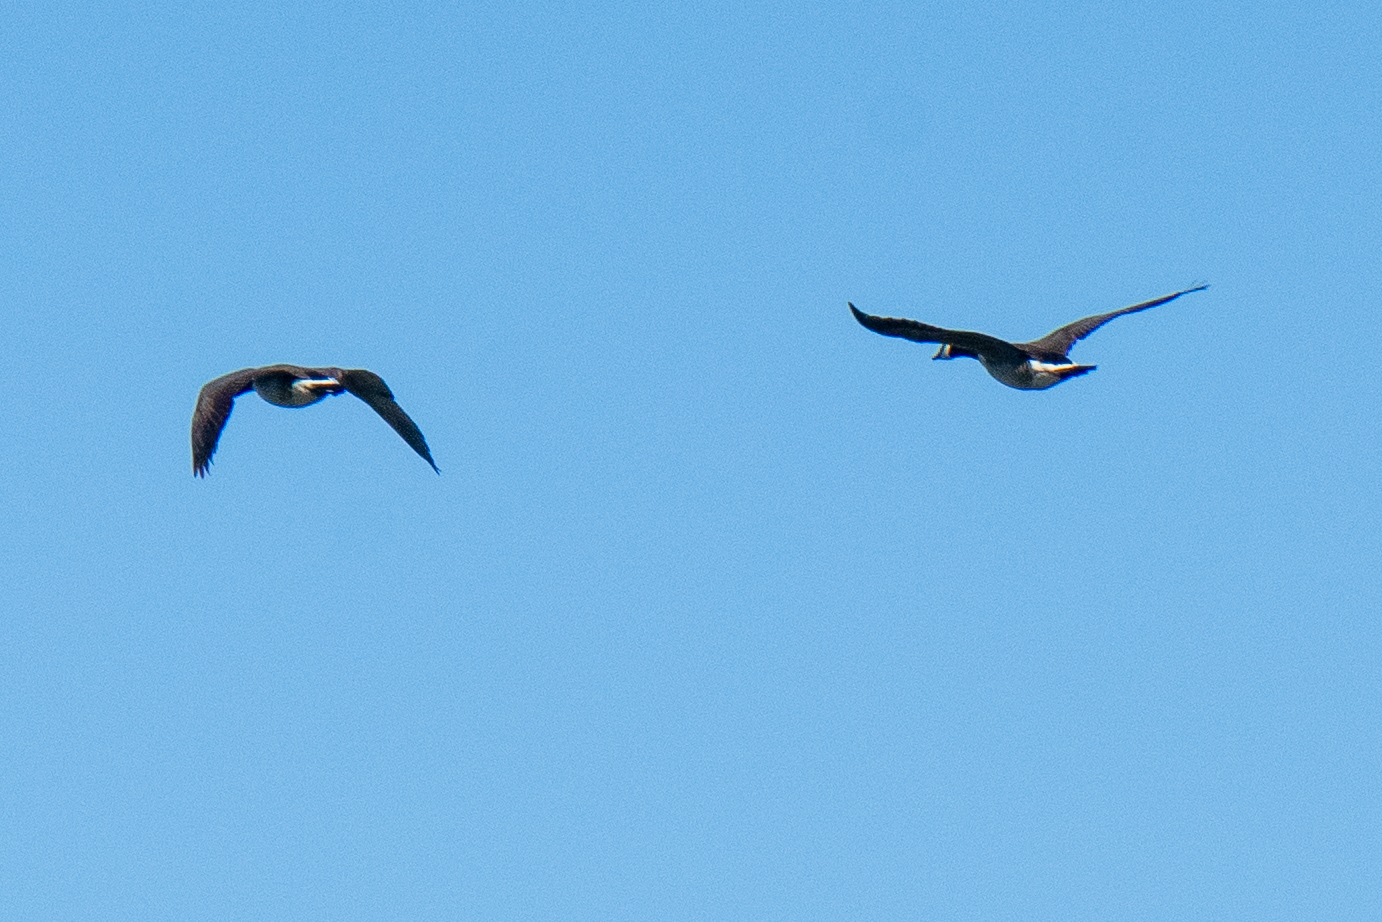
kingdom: Animalia
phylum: Chordata
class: Aves
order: Anseriformes
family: Anatidae
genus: Branta
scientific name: Branta canadensis
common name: Canada goose
